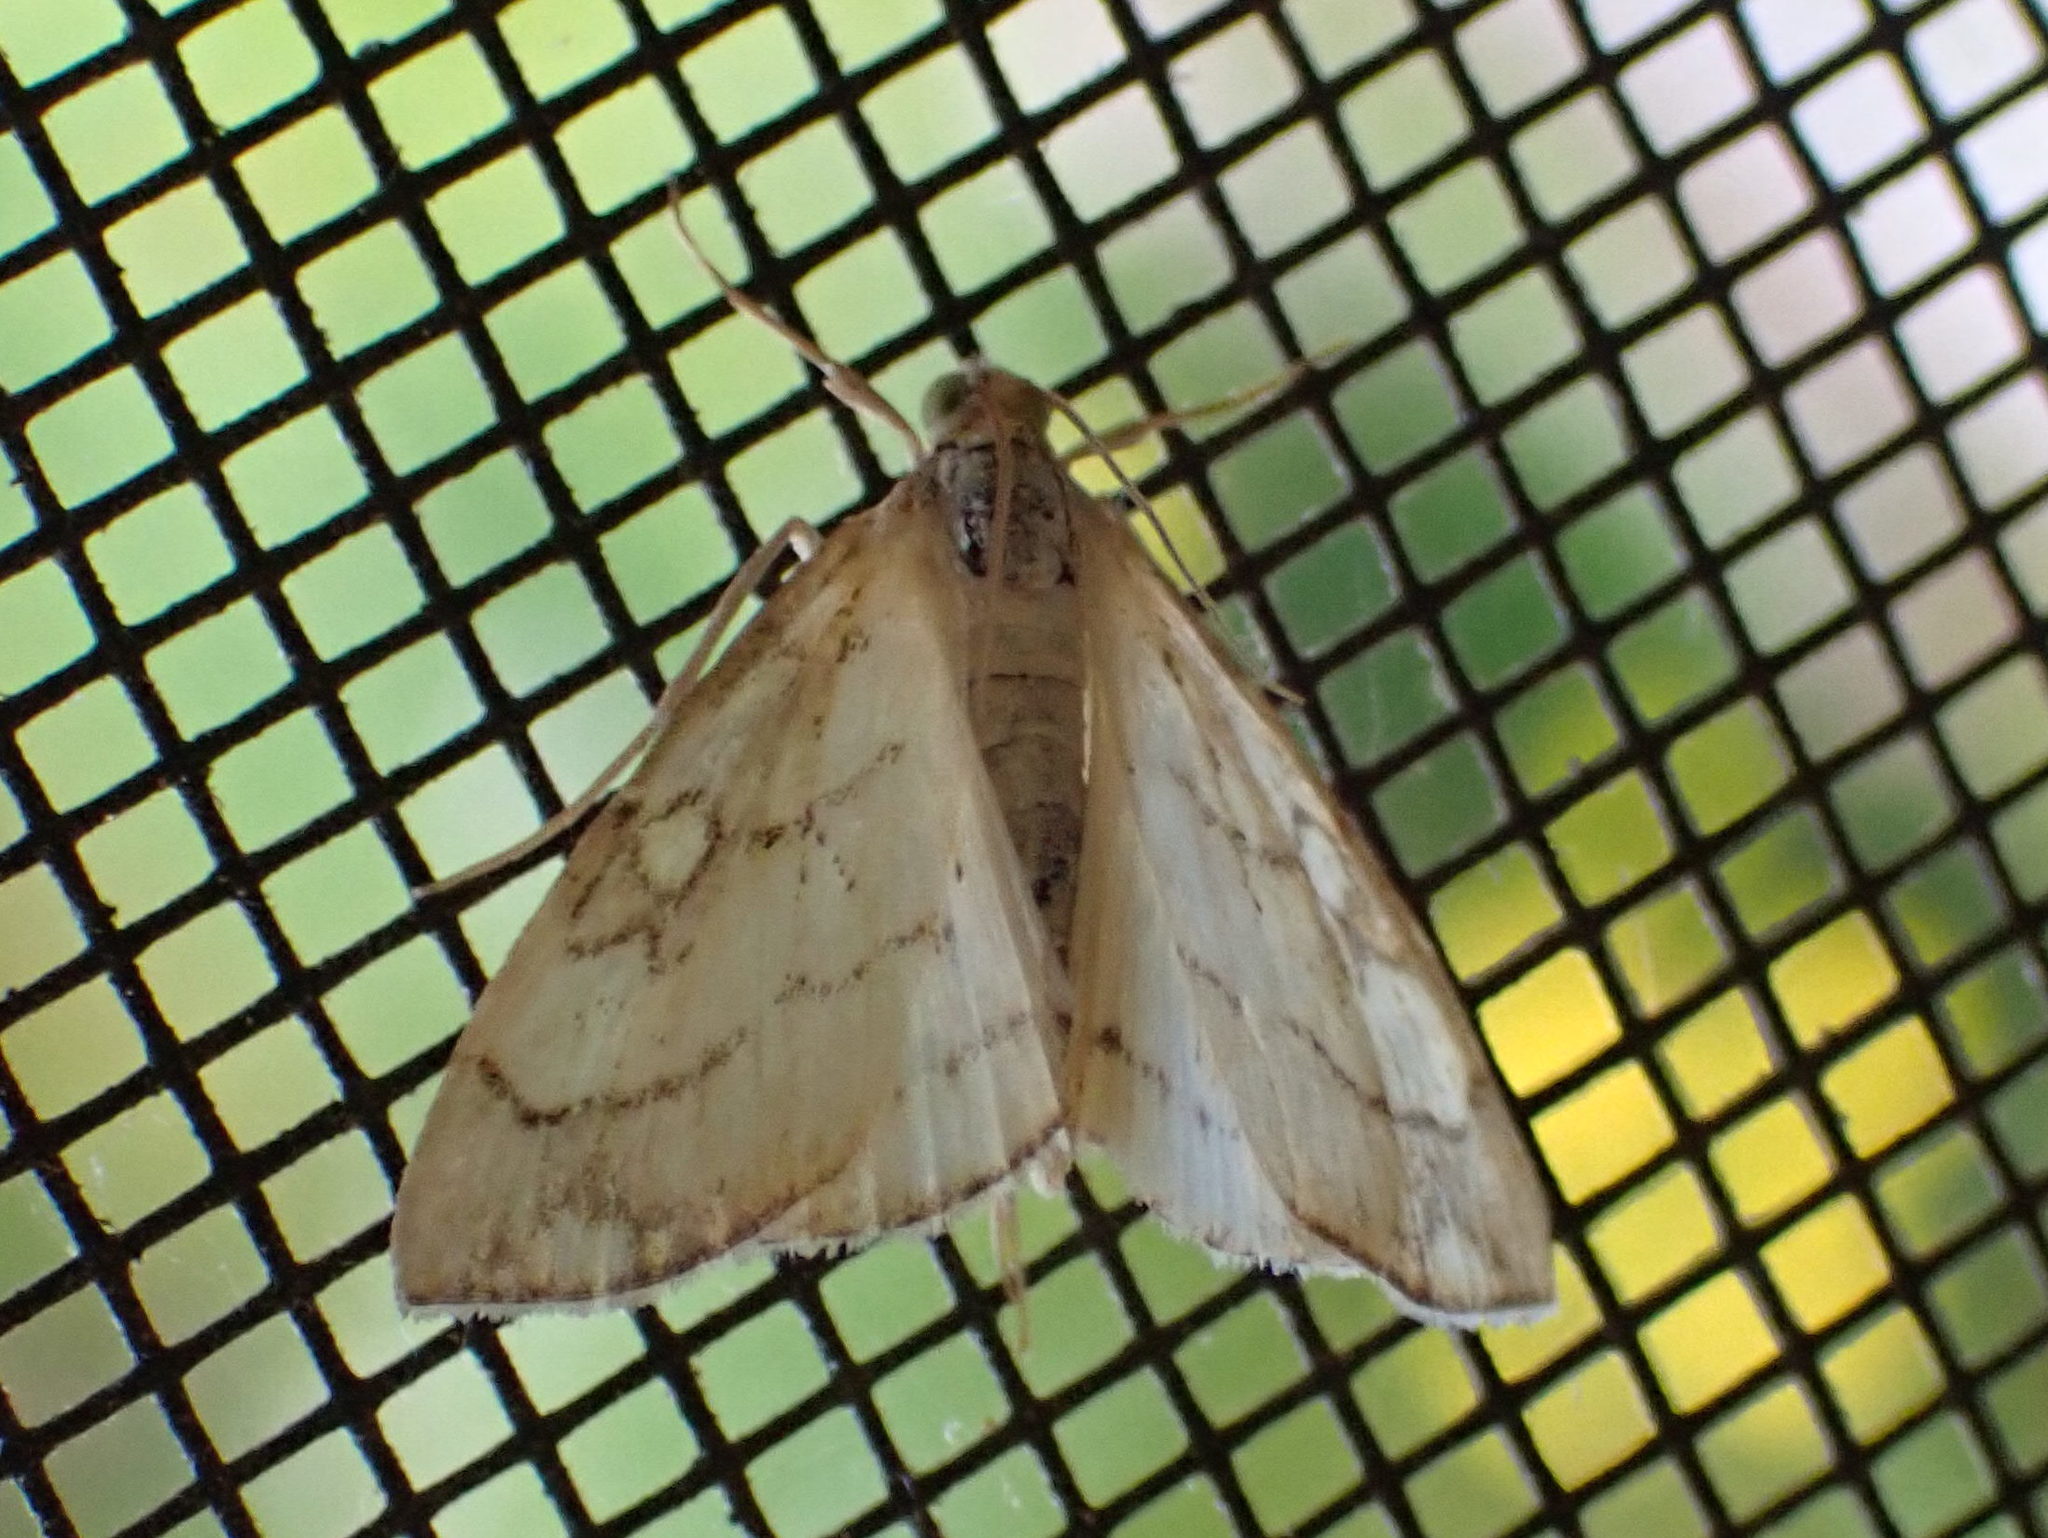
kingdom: Animalia
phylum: Arthropoda
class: Insecta
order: Lepidoptera
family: Crambidae
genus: Evergestis
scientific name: Evergestis pallidata
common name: Chequered pearl
